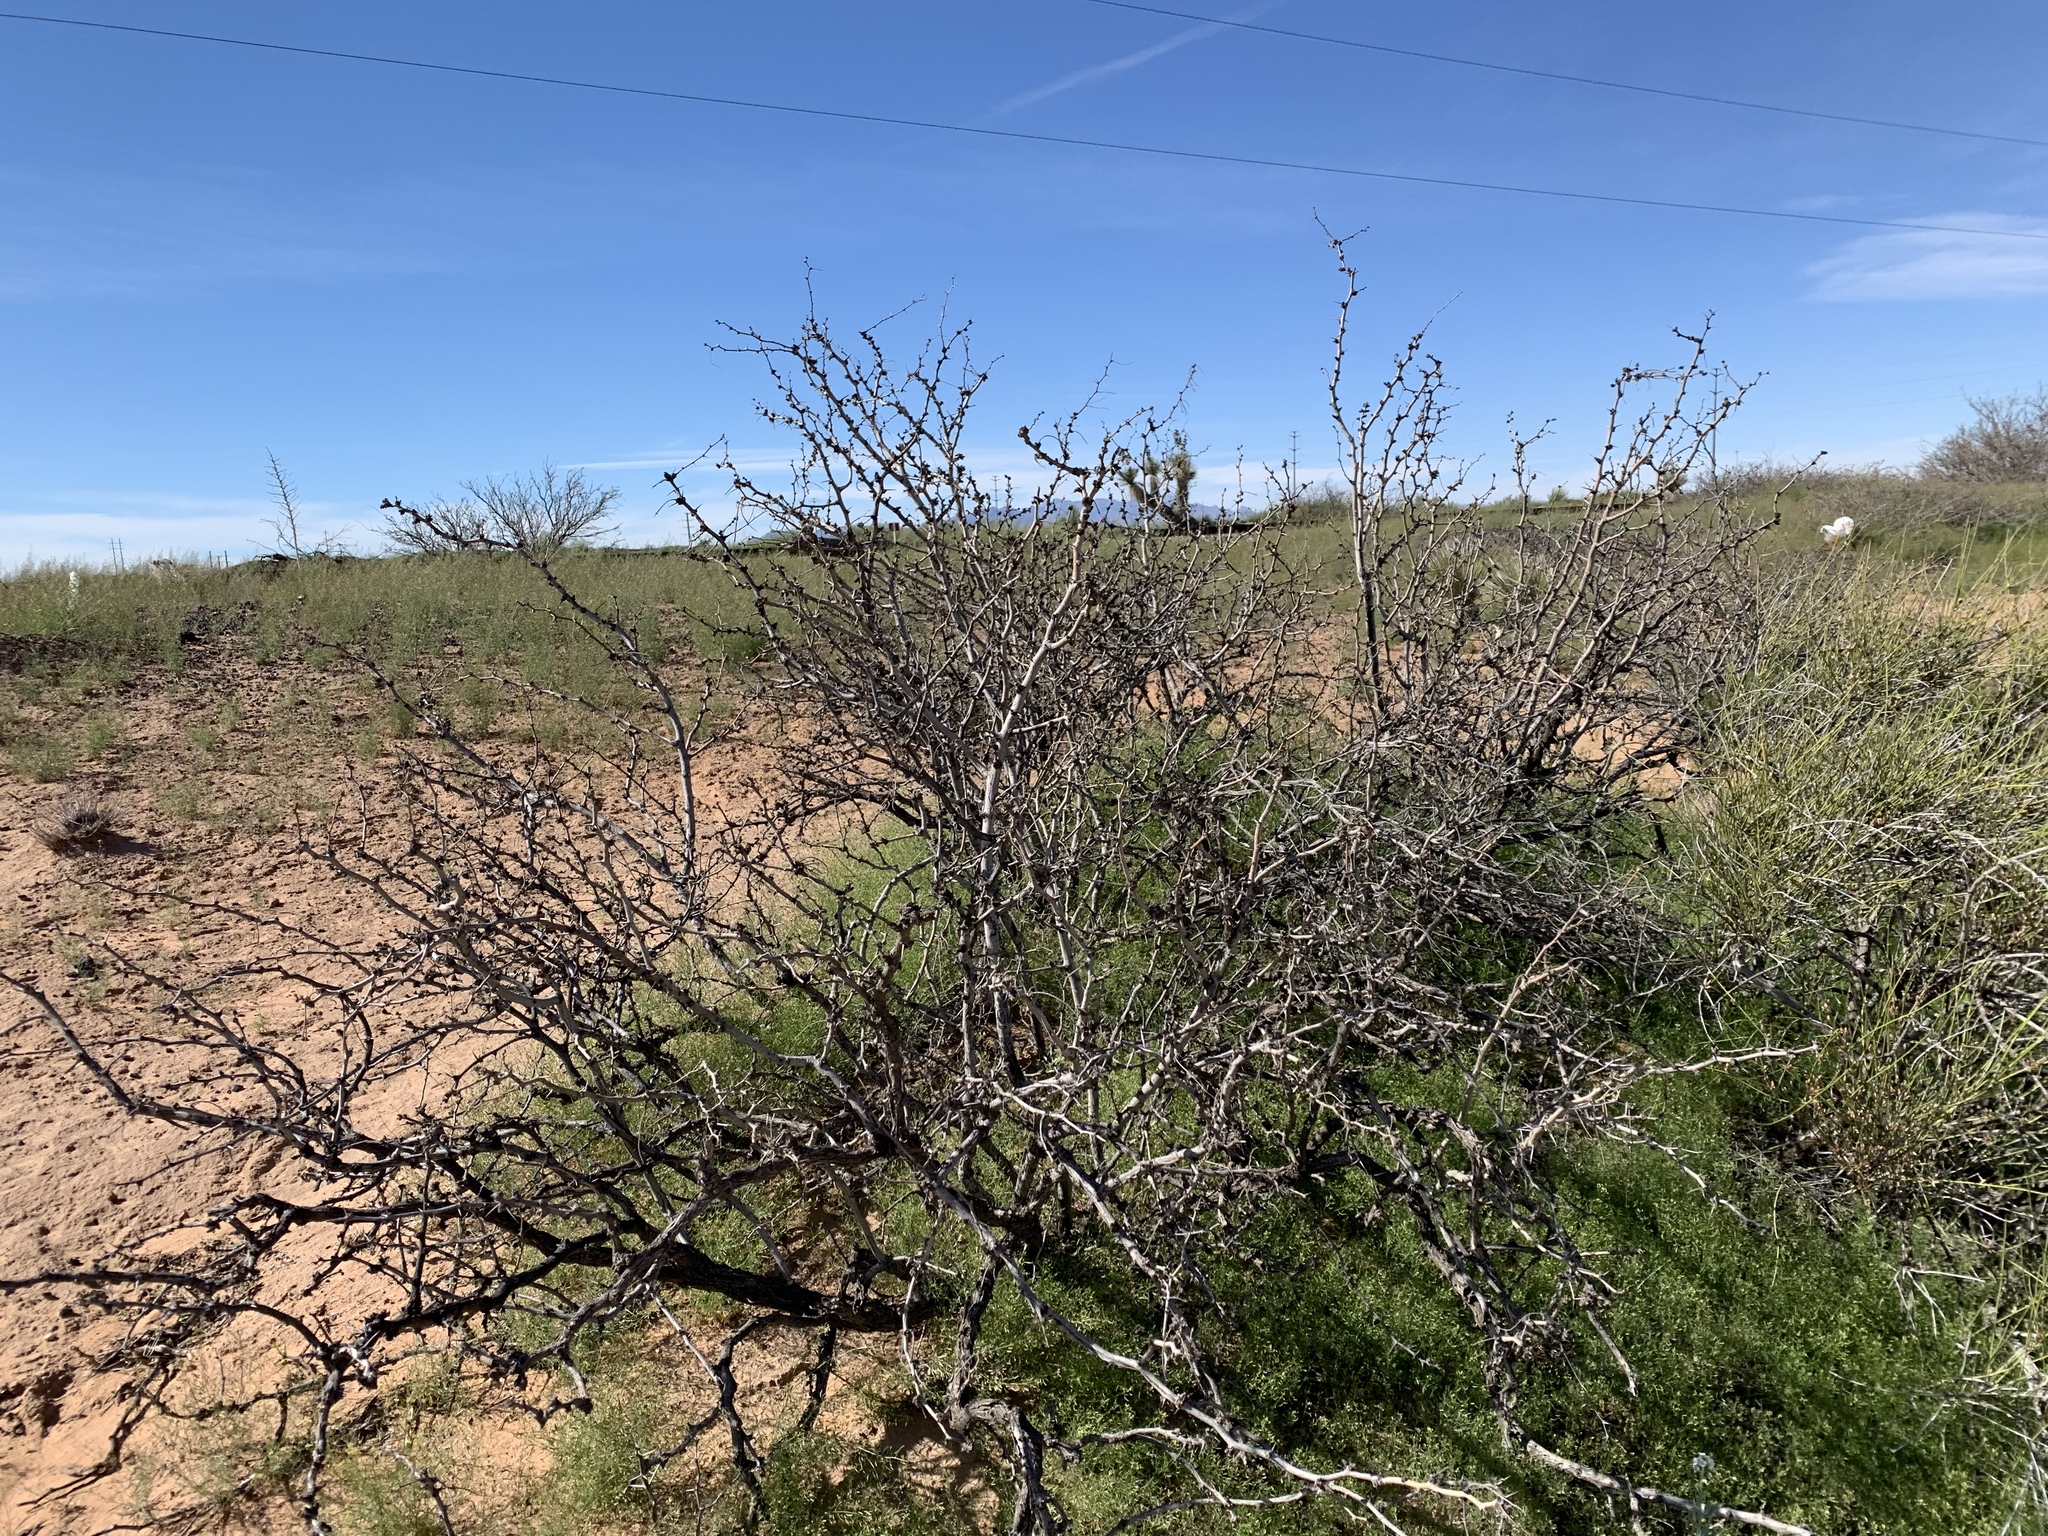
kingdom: Plantae
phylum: Tracheophyta
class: Magnoliopsida
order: Fabales
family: Fabaceae
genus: Prosopis
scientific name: Prosopis glandulosa
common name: Honey mesquite
